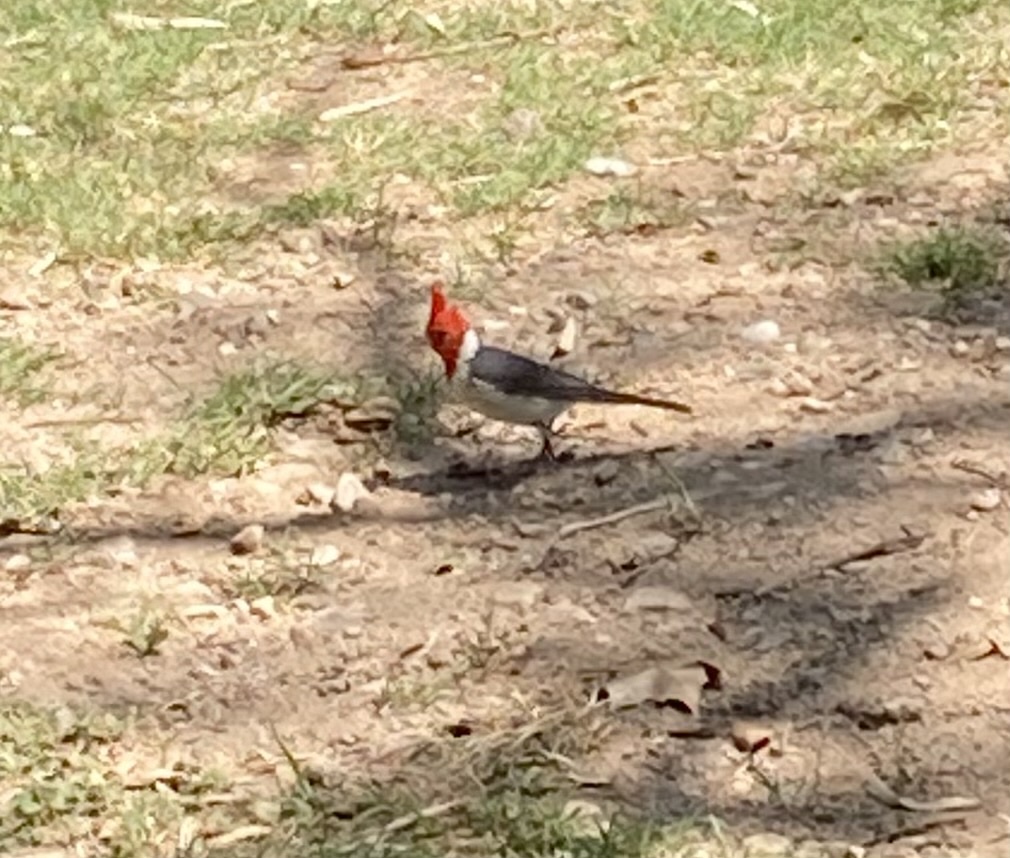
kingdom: Animalia
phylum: Chordata
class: Aves
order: Passeriformes
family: Thraupidae
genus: Paroaria
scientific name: Paroaria coronata
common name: Red-crested cardinal
